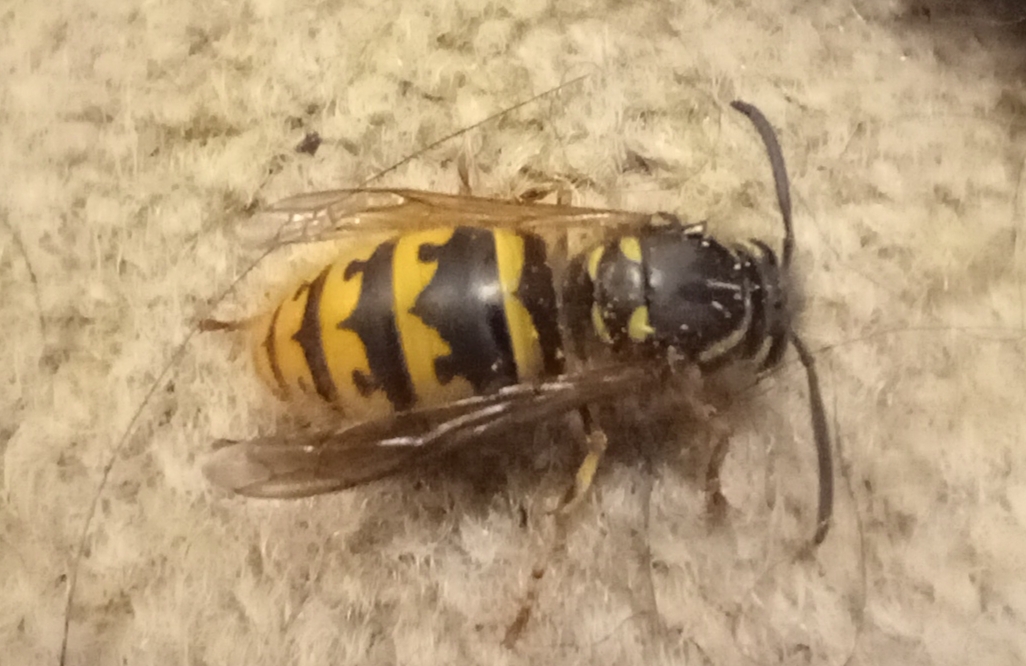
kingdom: Animalia
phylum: Arthropoda
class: Insecta
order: Hymenoptera
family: Vespidae
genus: Vespula
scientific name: Vespula vulgaris
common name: Common wasp
